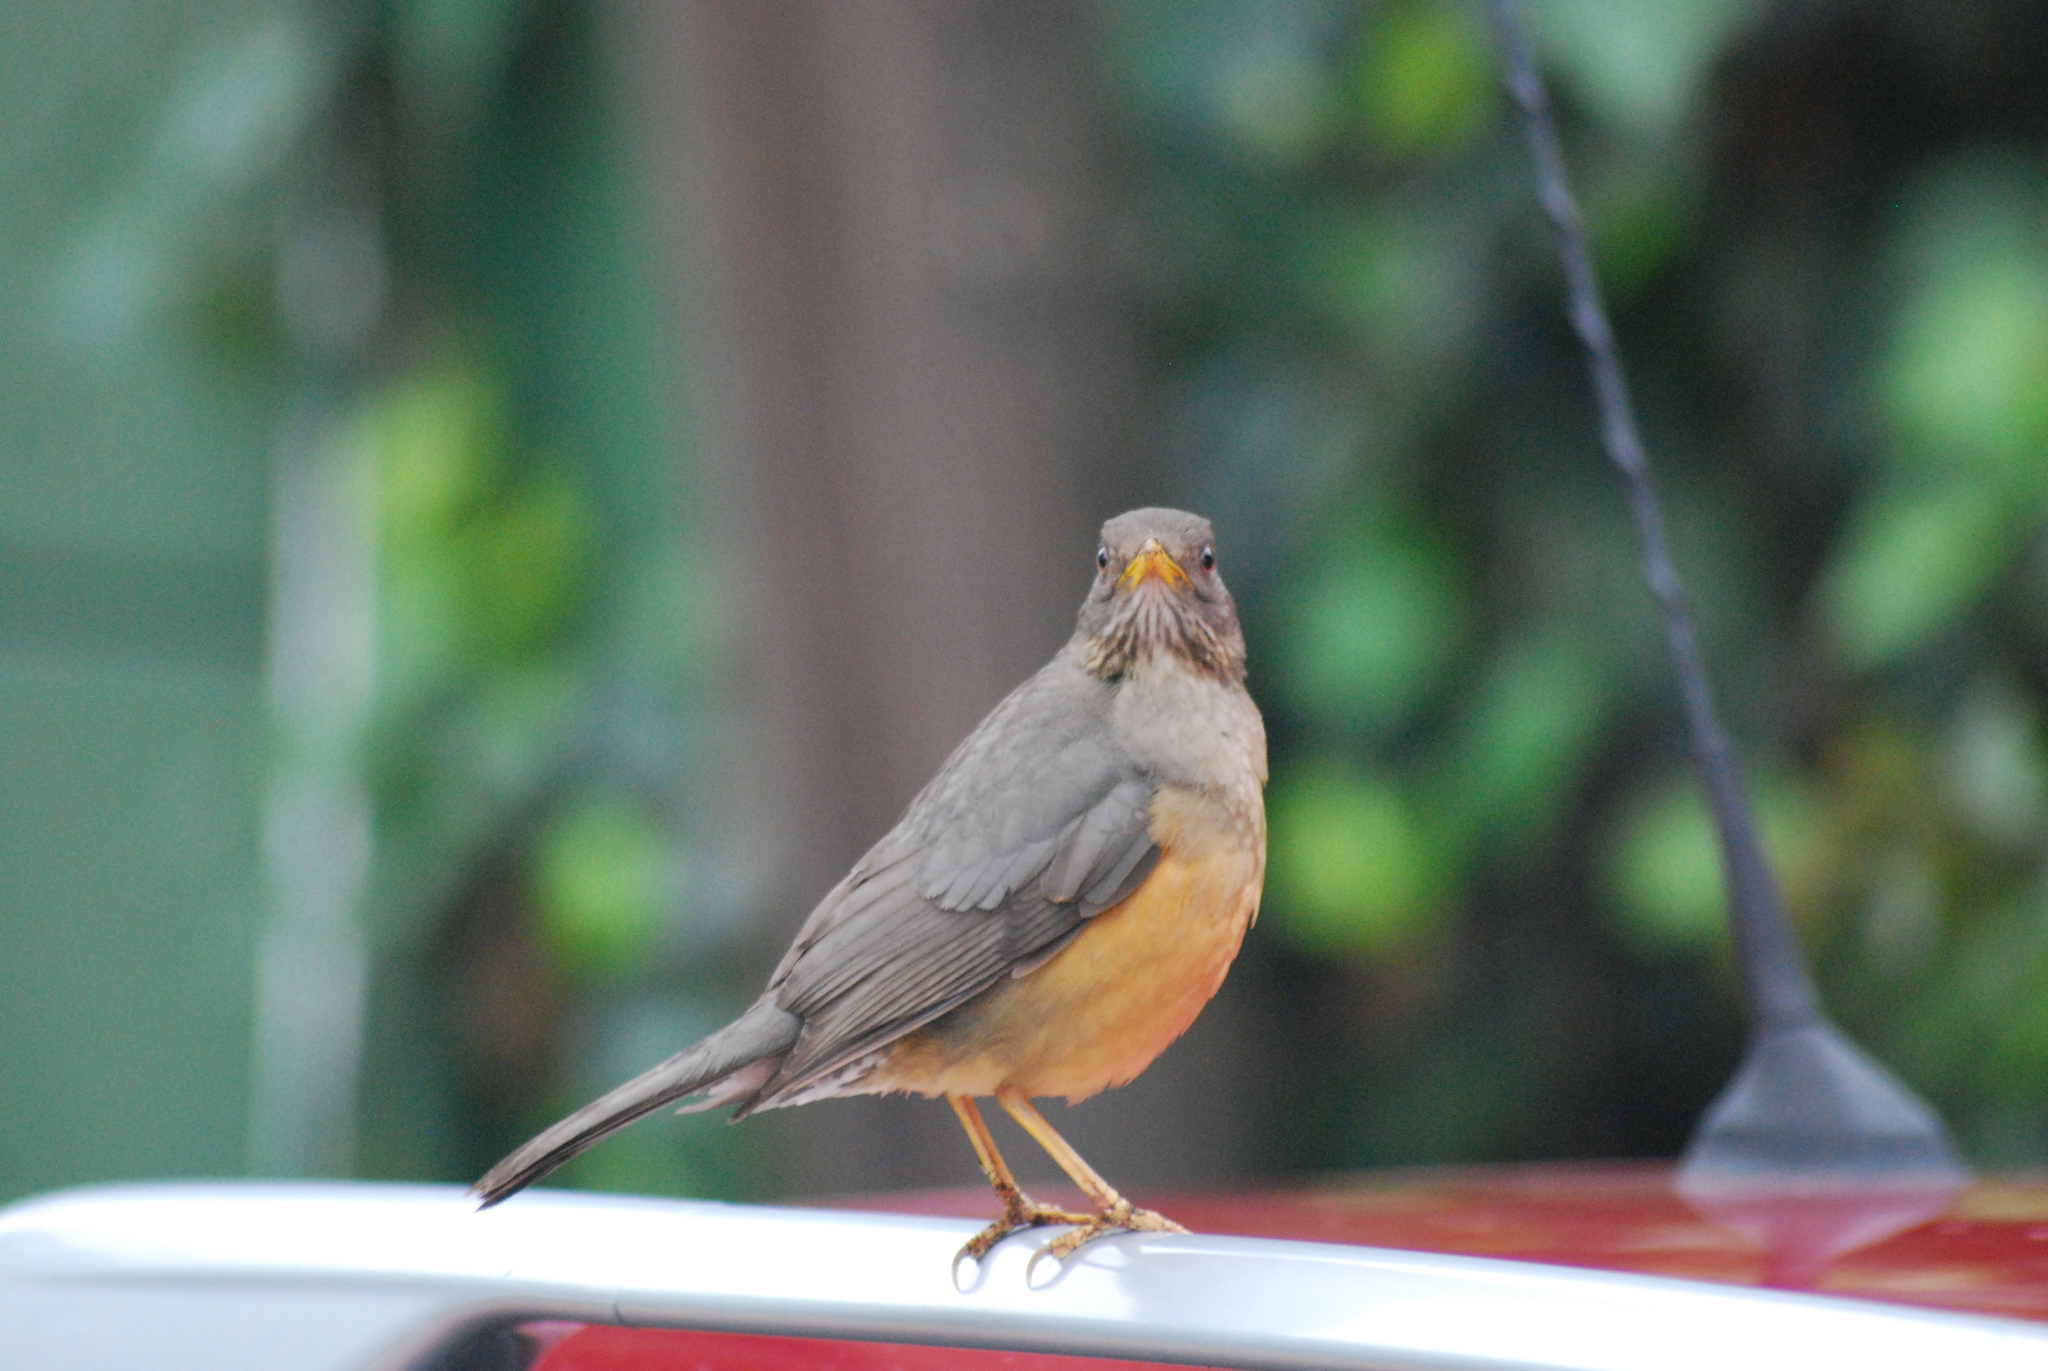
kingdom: Animalia
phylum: Chordata
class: Aves
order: Passeriformes
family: Turdidae
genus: Turdus
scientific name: Turdus olivaceus
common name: Olive thrush
